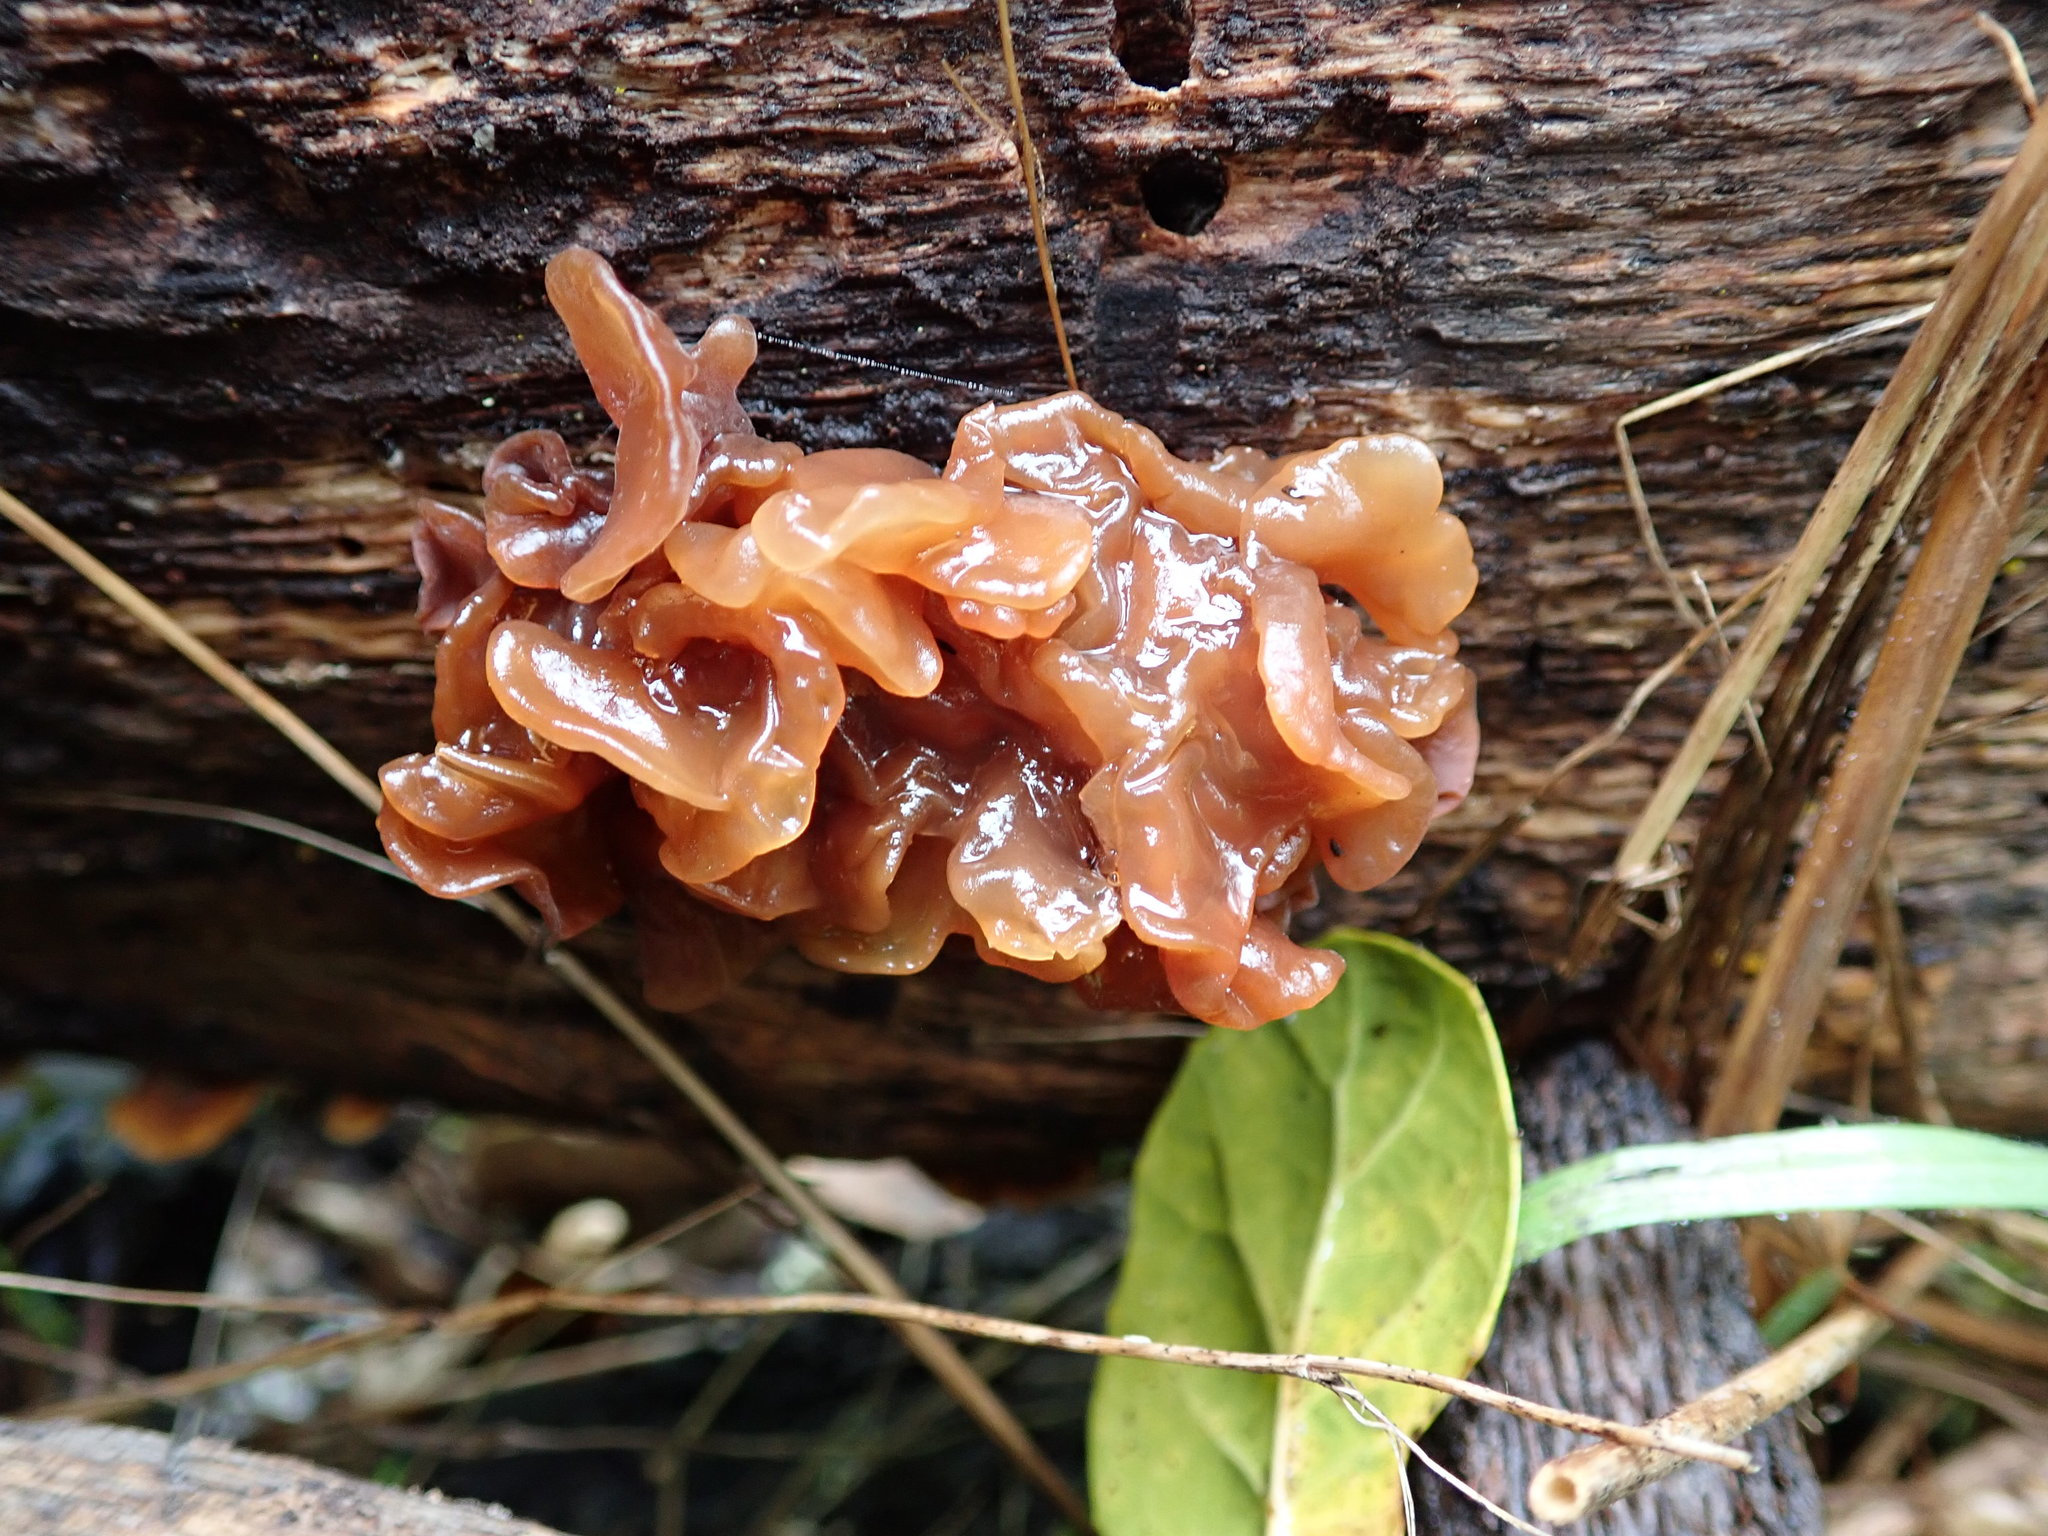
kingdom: Fungi
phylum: Basidiomycota
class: Tremellomycetes
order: Tremellales
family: Tremellaceae
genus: Phaeotremella
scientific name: Phaeotremella frondosa
